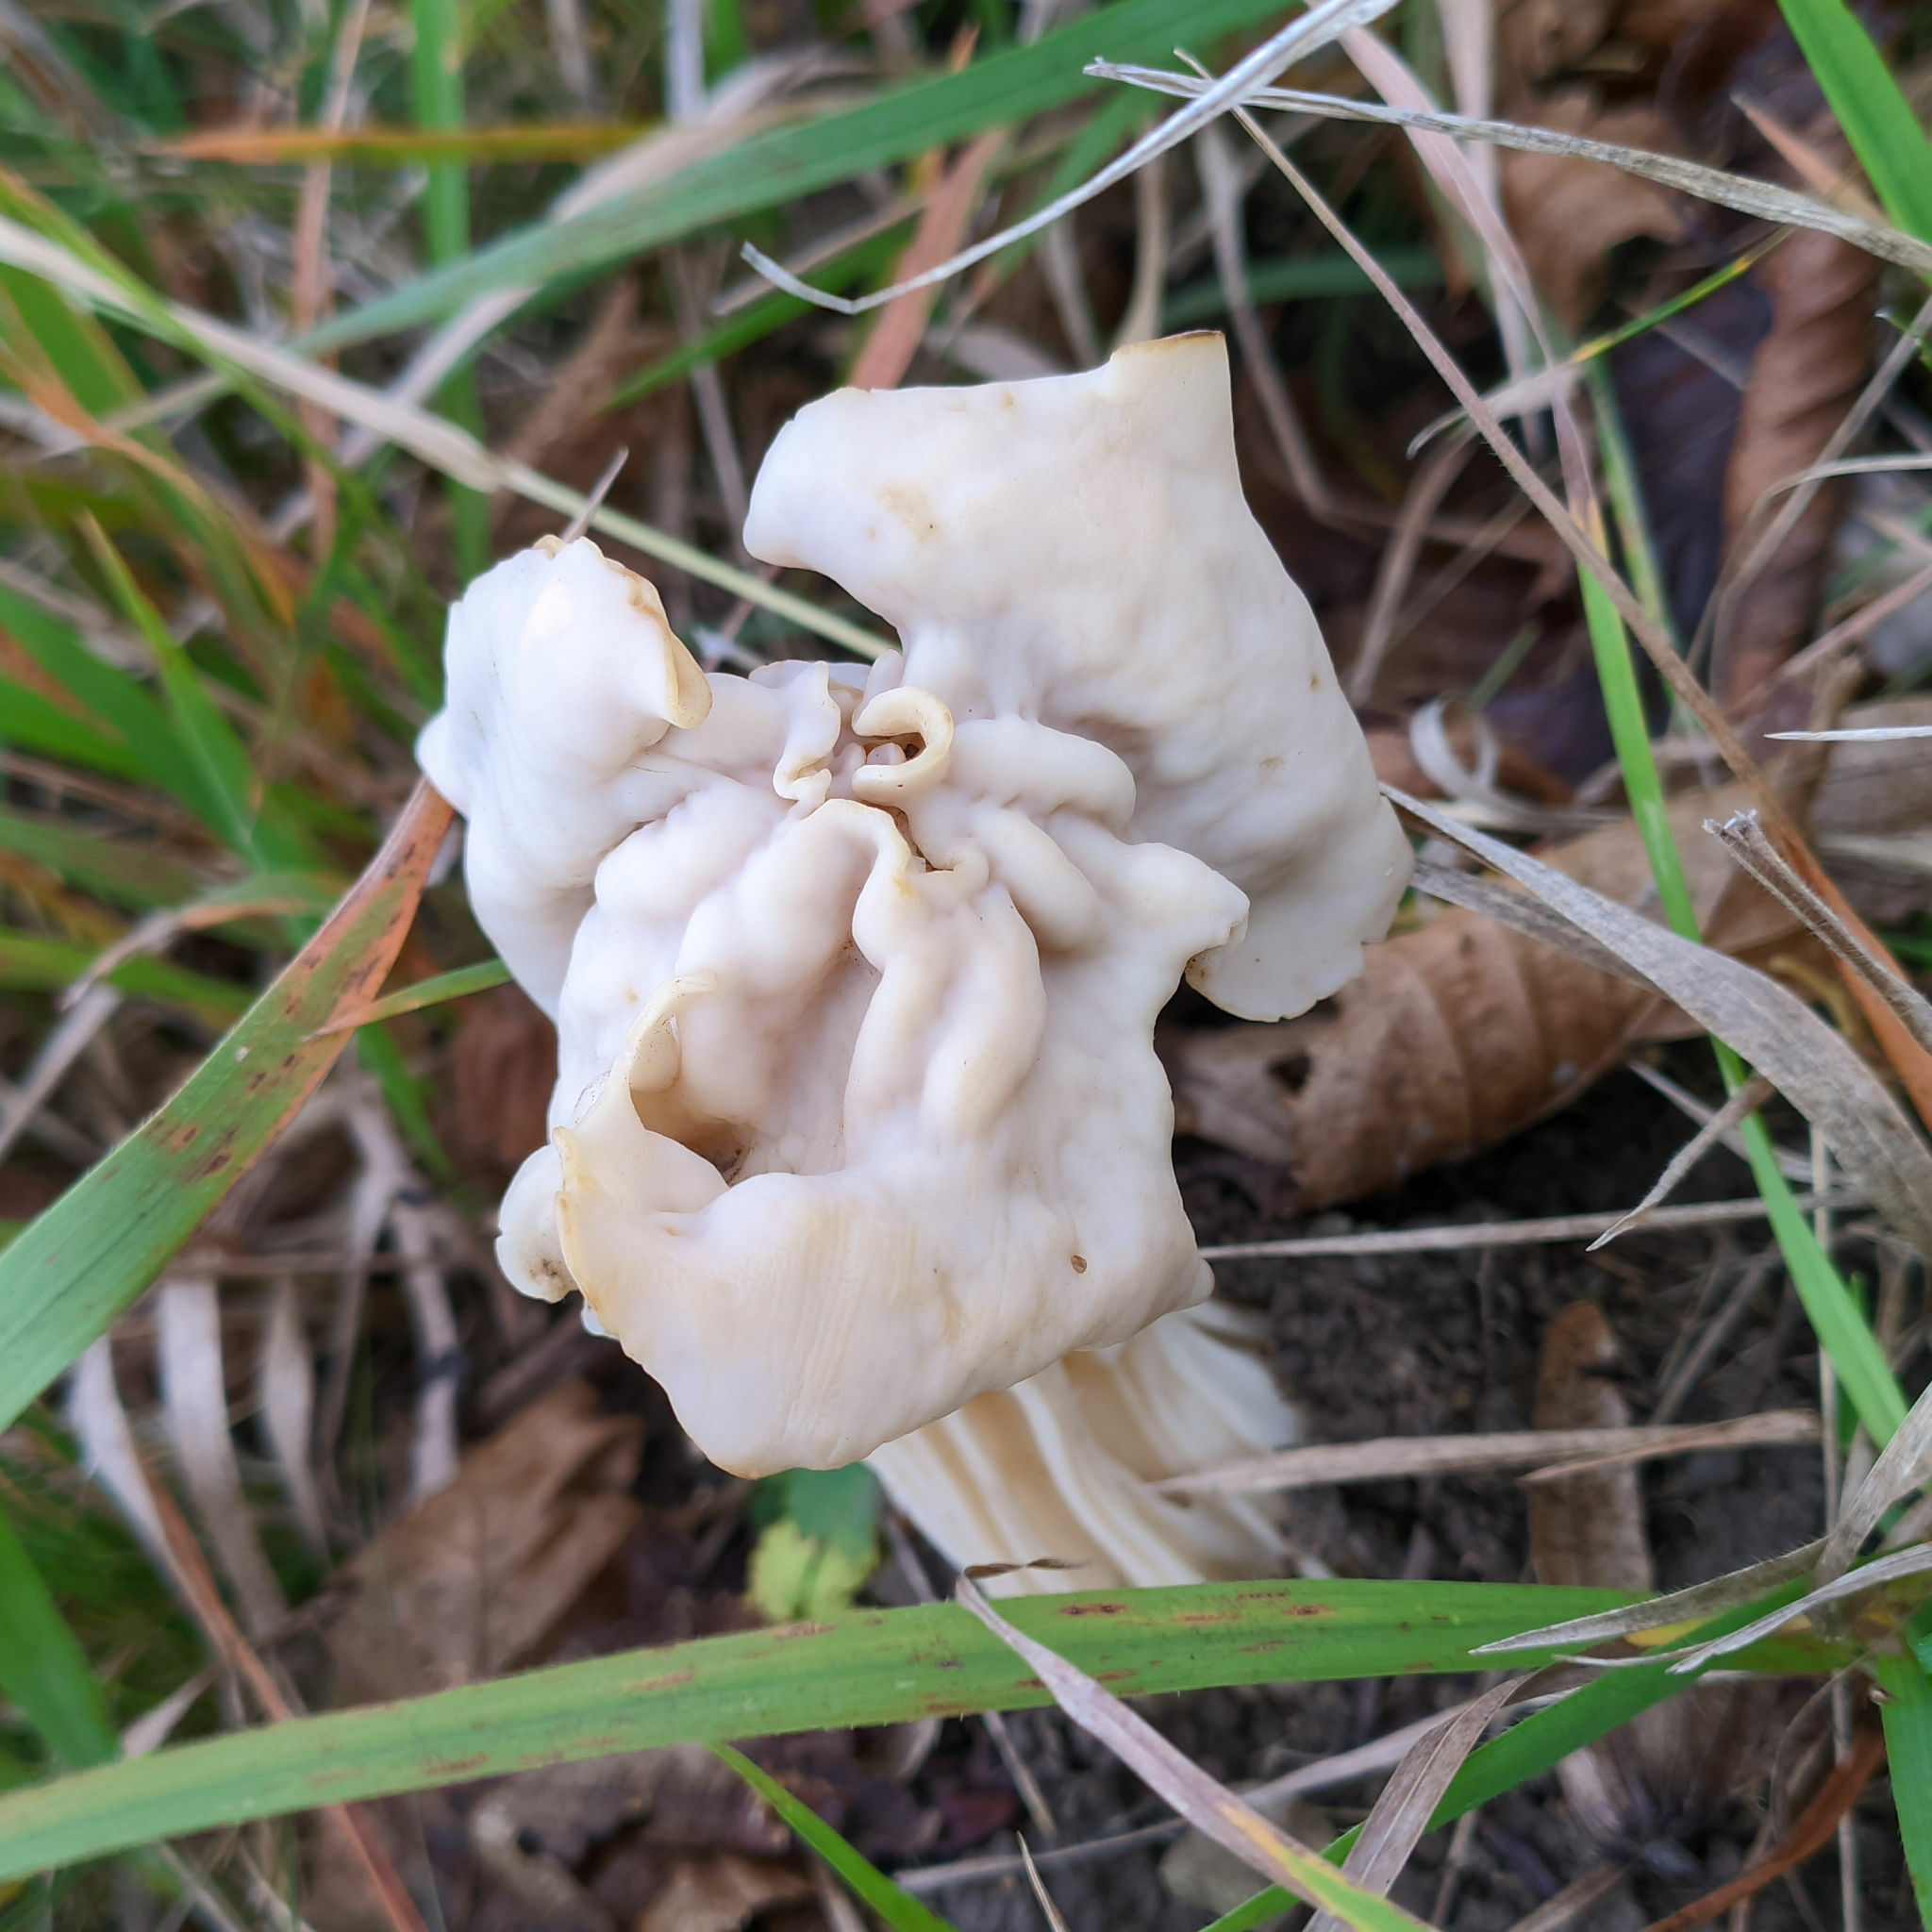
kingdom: Fungi
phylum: Ascomycota
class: Pezizomycetes
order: Pezizales
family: Helvellaceae
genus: Helvella
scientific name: Helvella crispa
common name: White saddle
